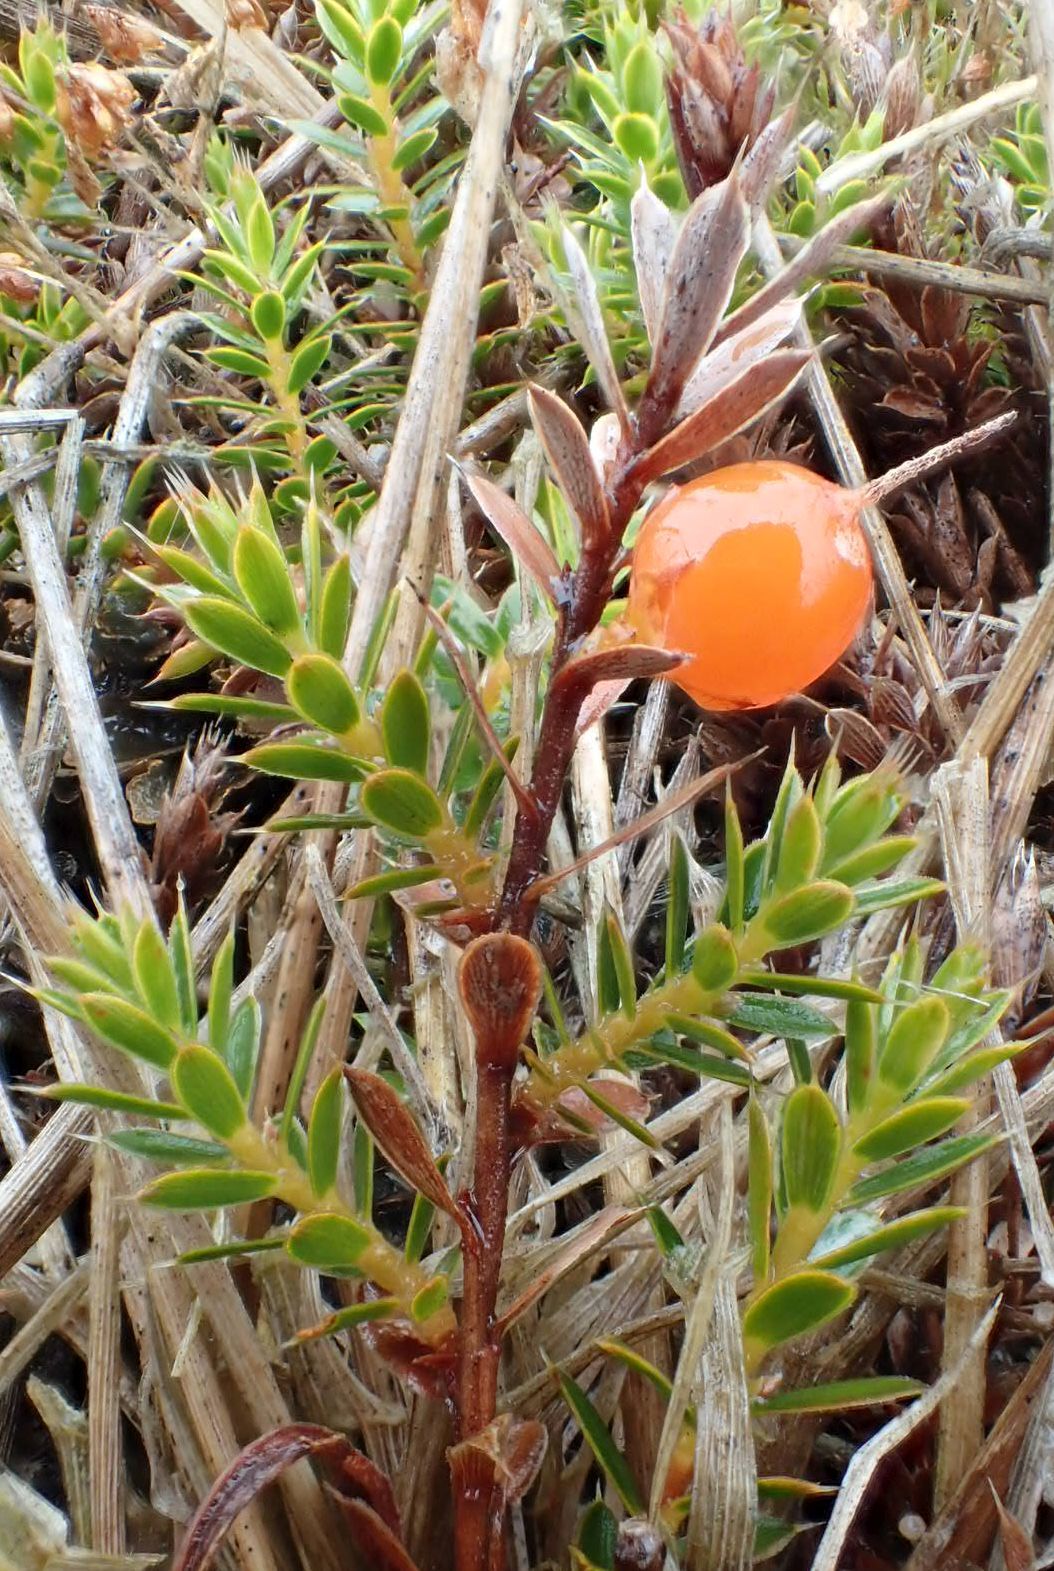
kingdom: Plantae
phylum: Tracheophyta
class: Magnoliopsida
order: Ericales
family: Ericaceae
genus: Styphelia
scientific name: Styphelia nesophila
